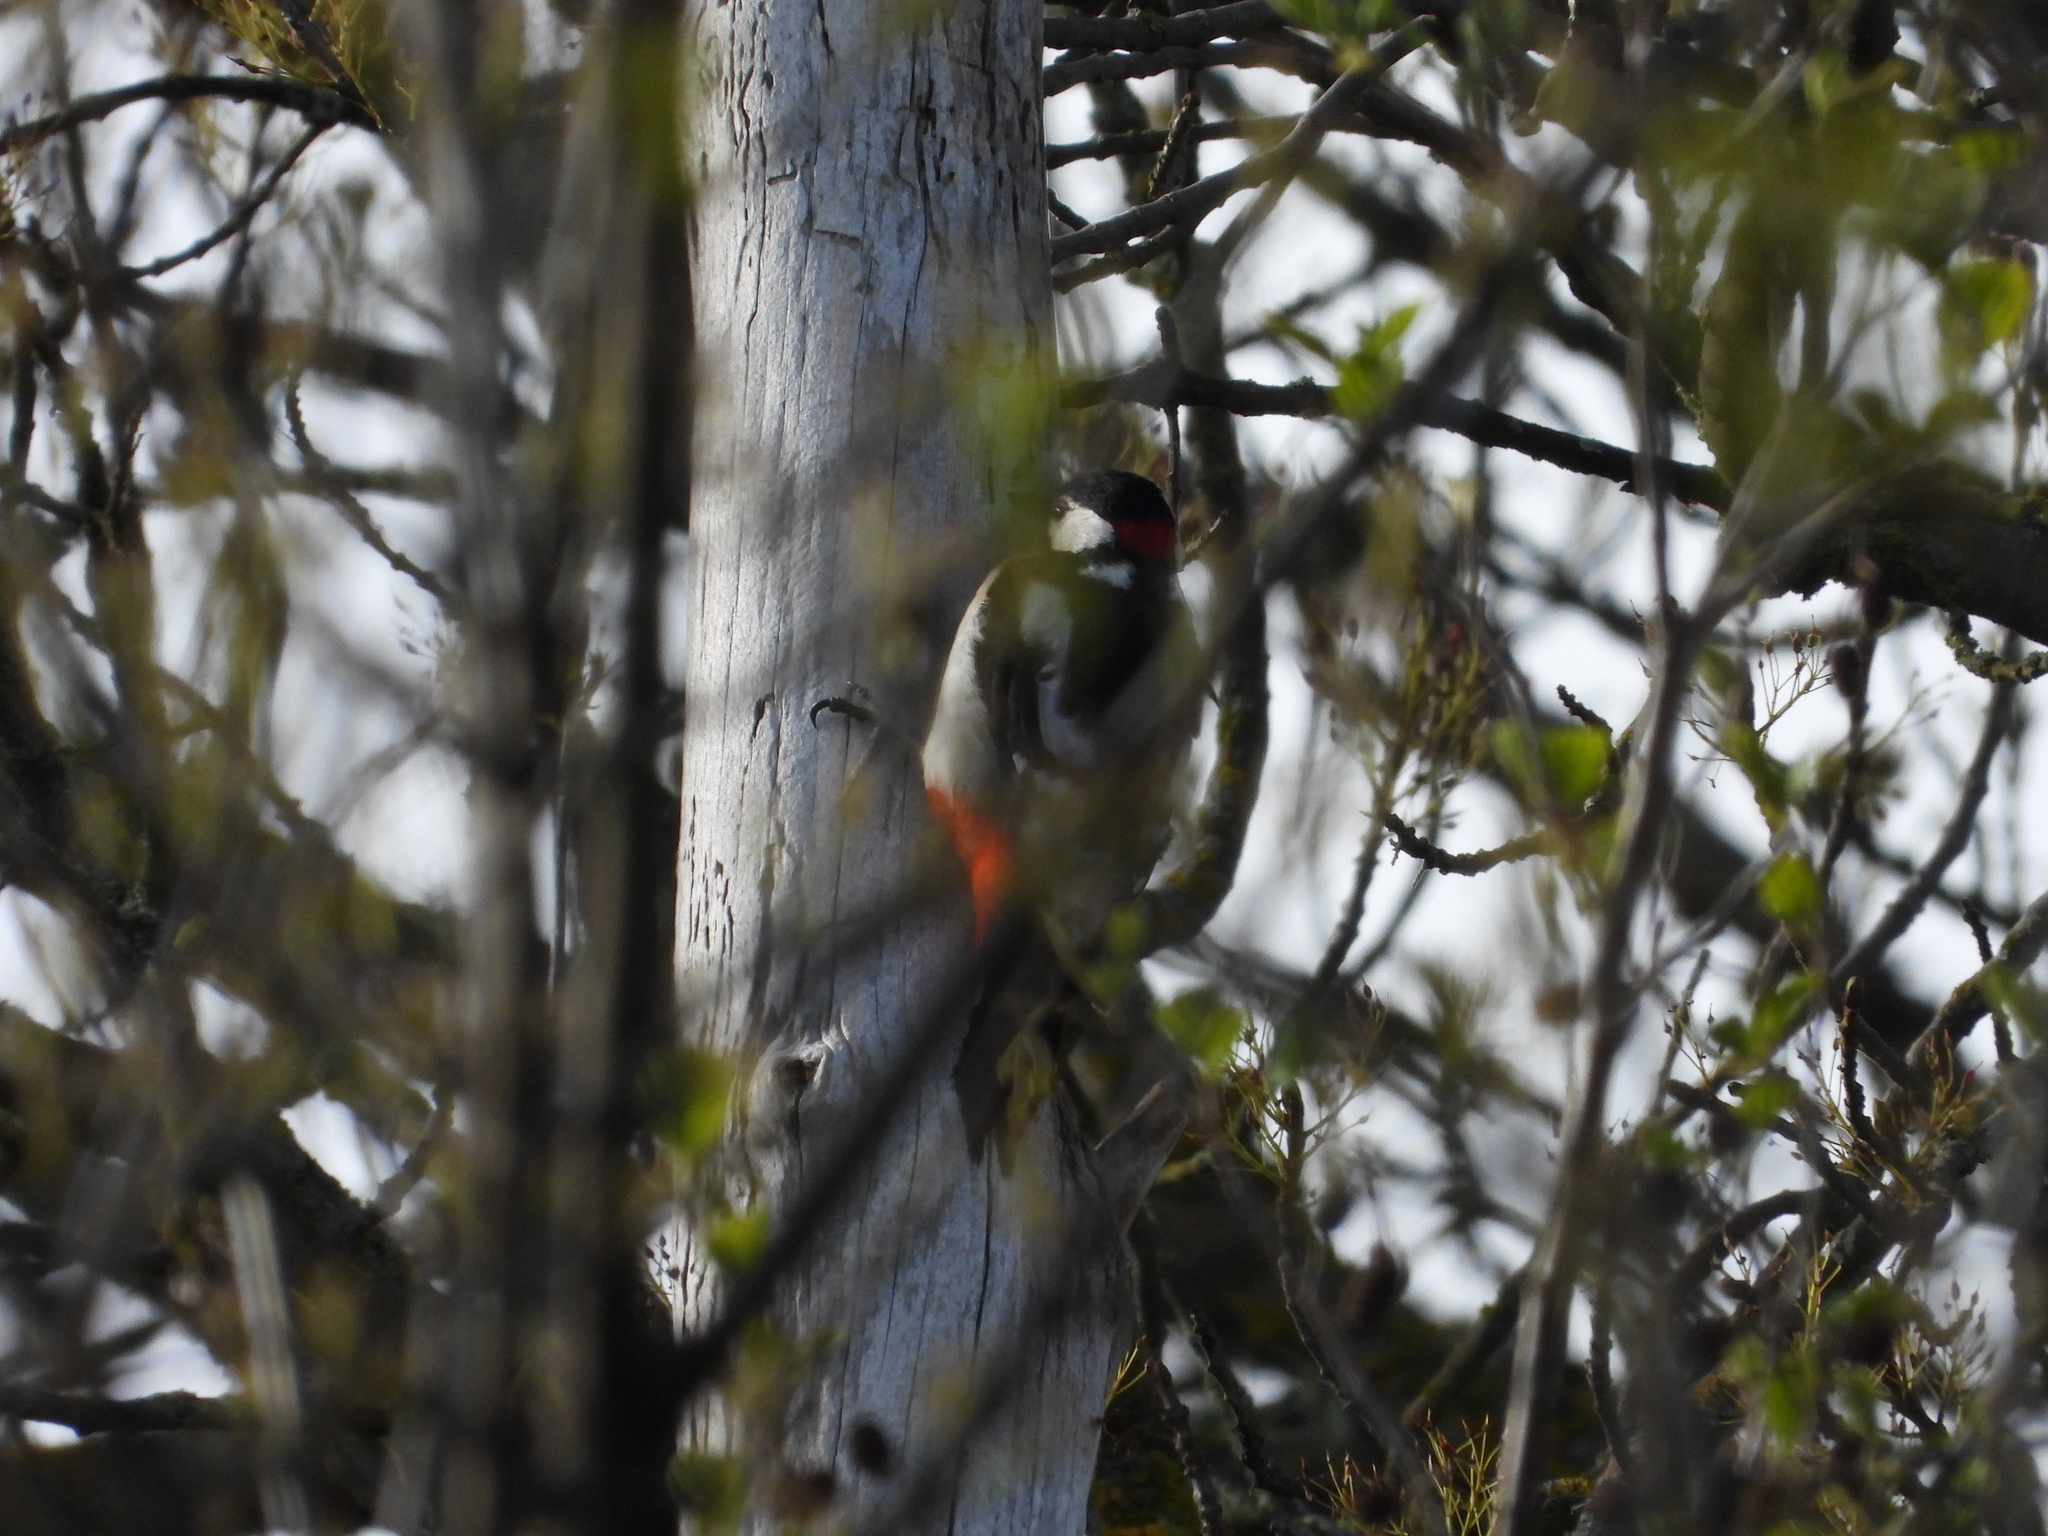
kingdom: Animalia
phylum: Chordata
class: Aves
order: Piciformes
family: Picidae
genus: Dendrocopos
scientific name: Dendrocopos major
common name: Great spotted woodpecker
